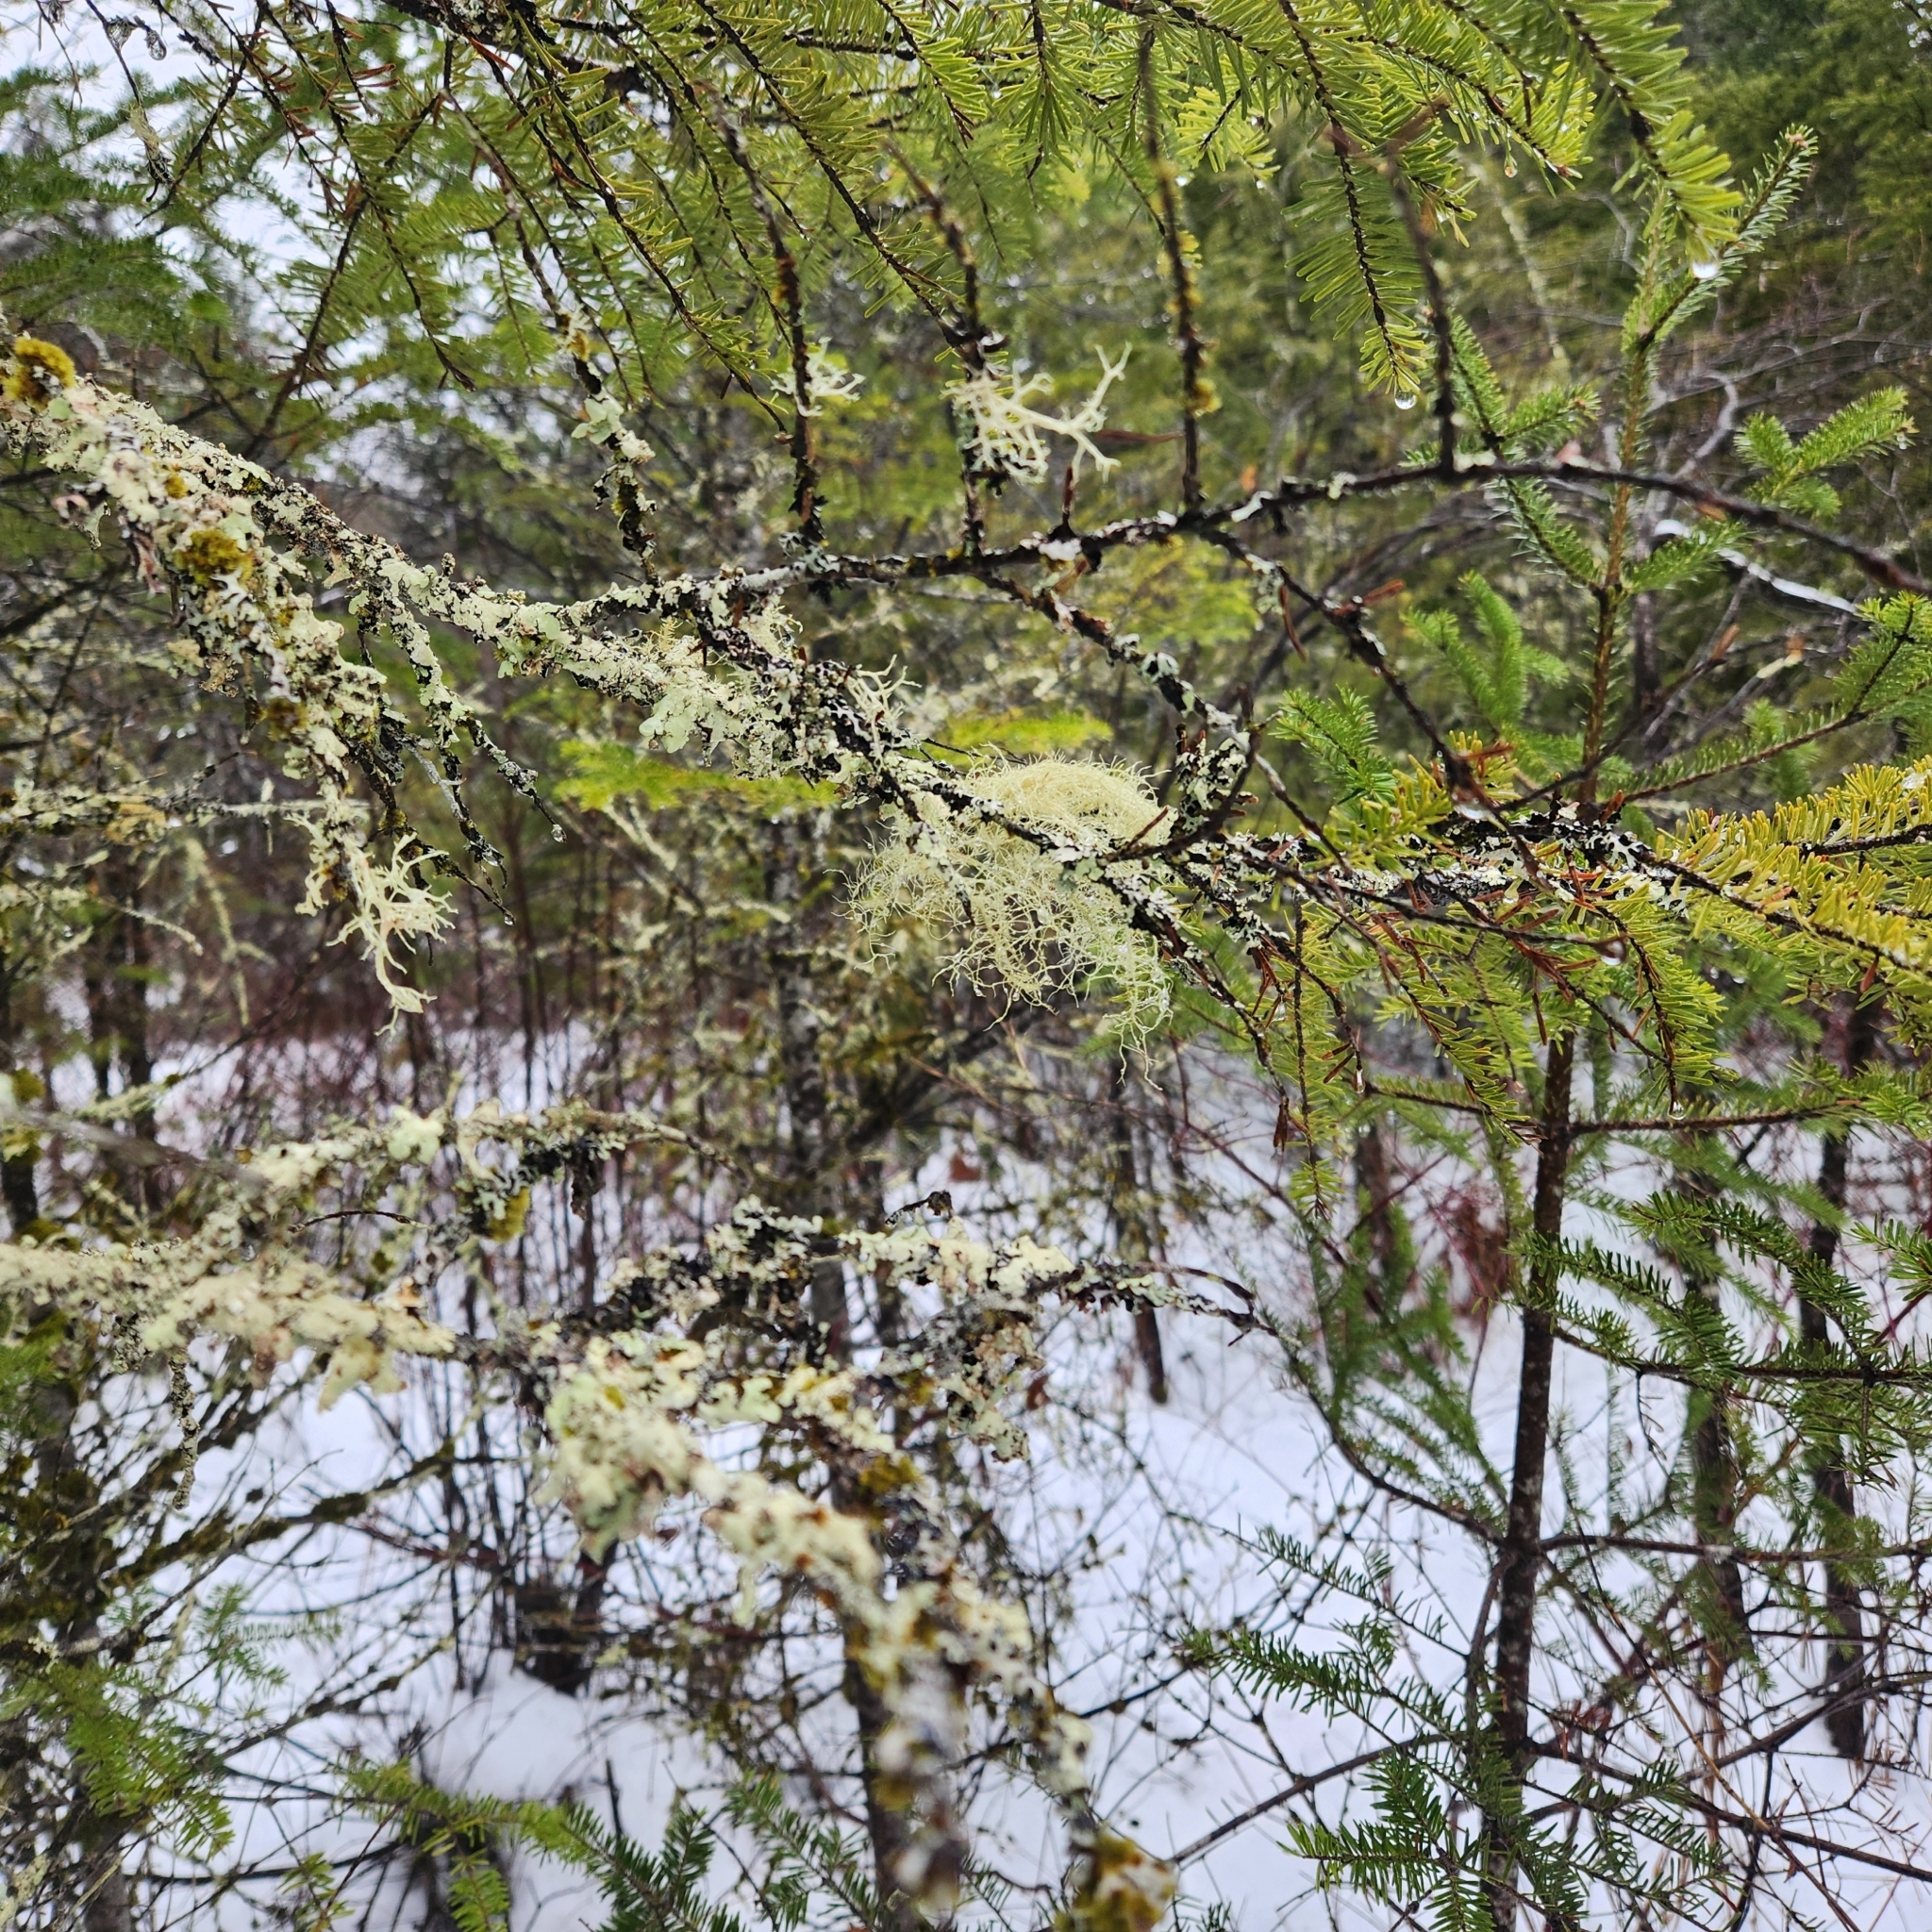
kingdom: Plantae
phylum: Tracheophyta
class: Pinopsida
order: Pinales
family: Pinaceae
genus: Abies
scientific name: Abies balsamea
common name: Balsam fir
